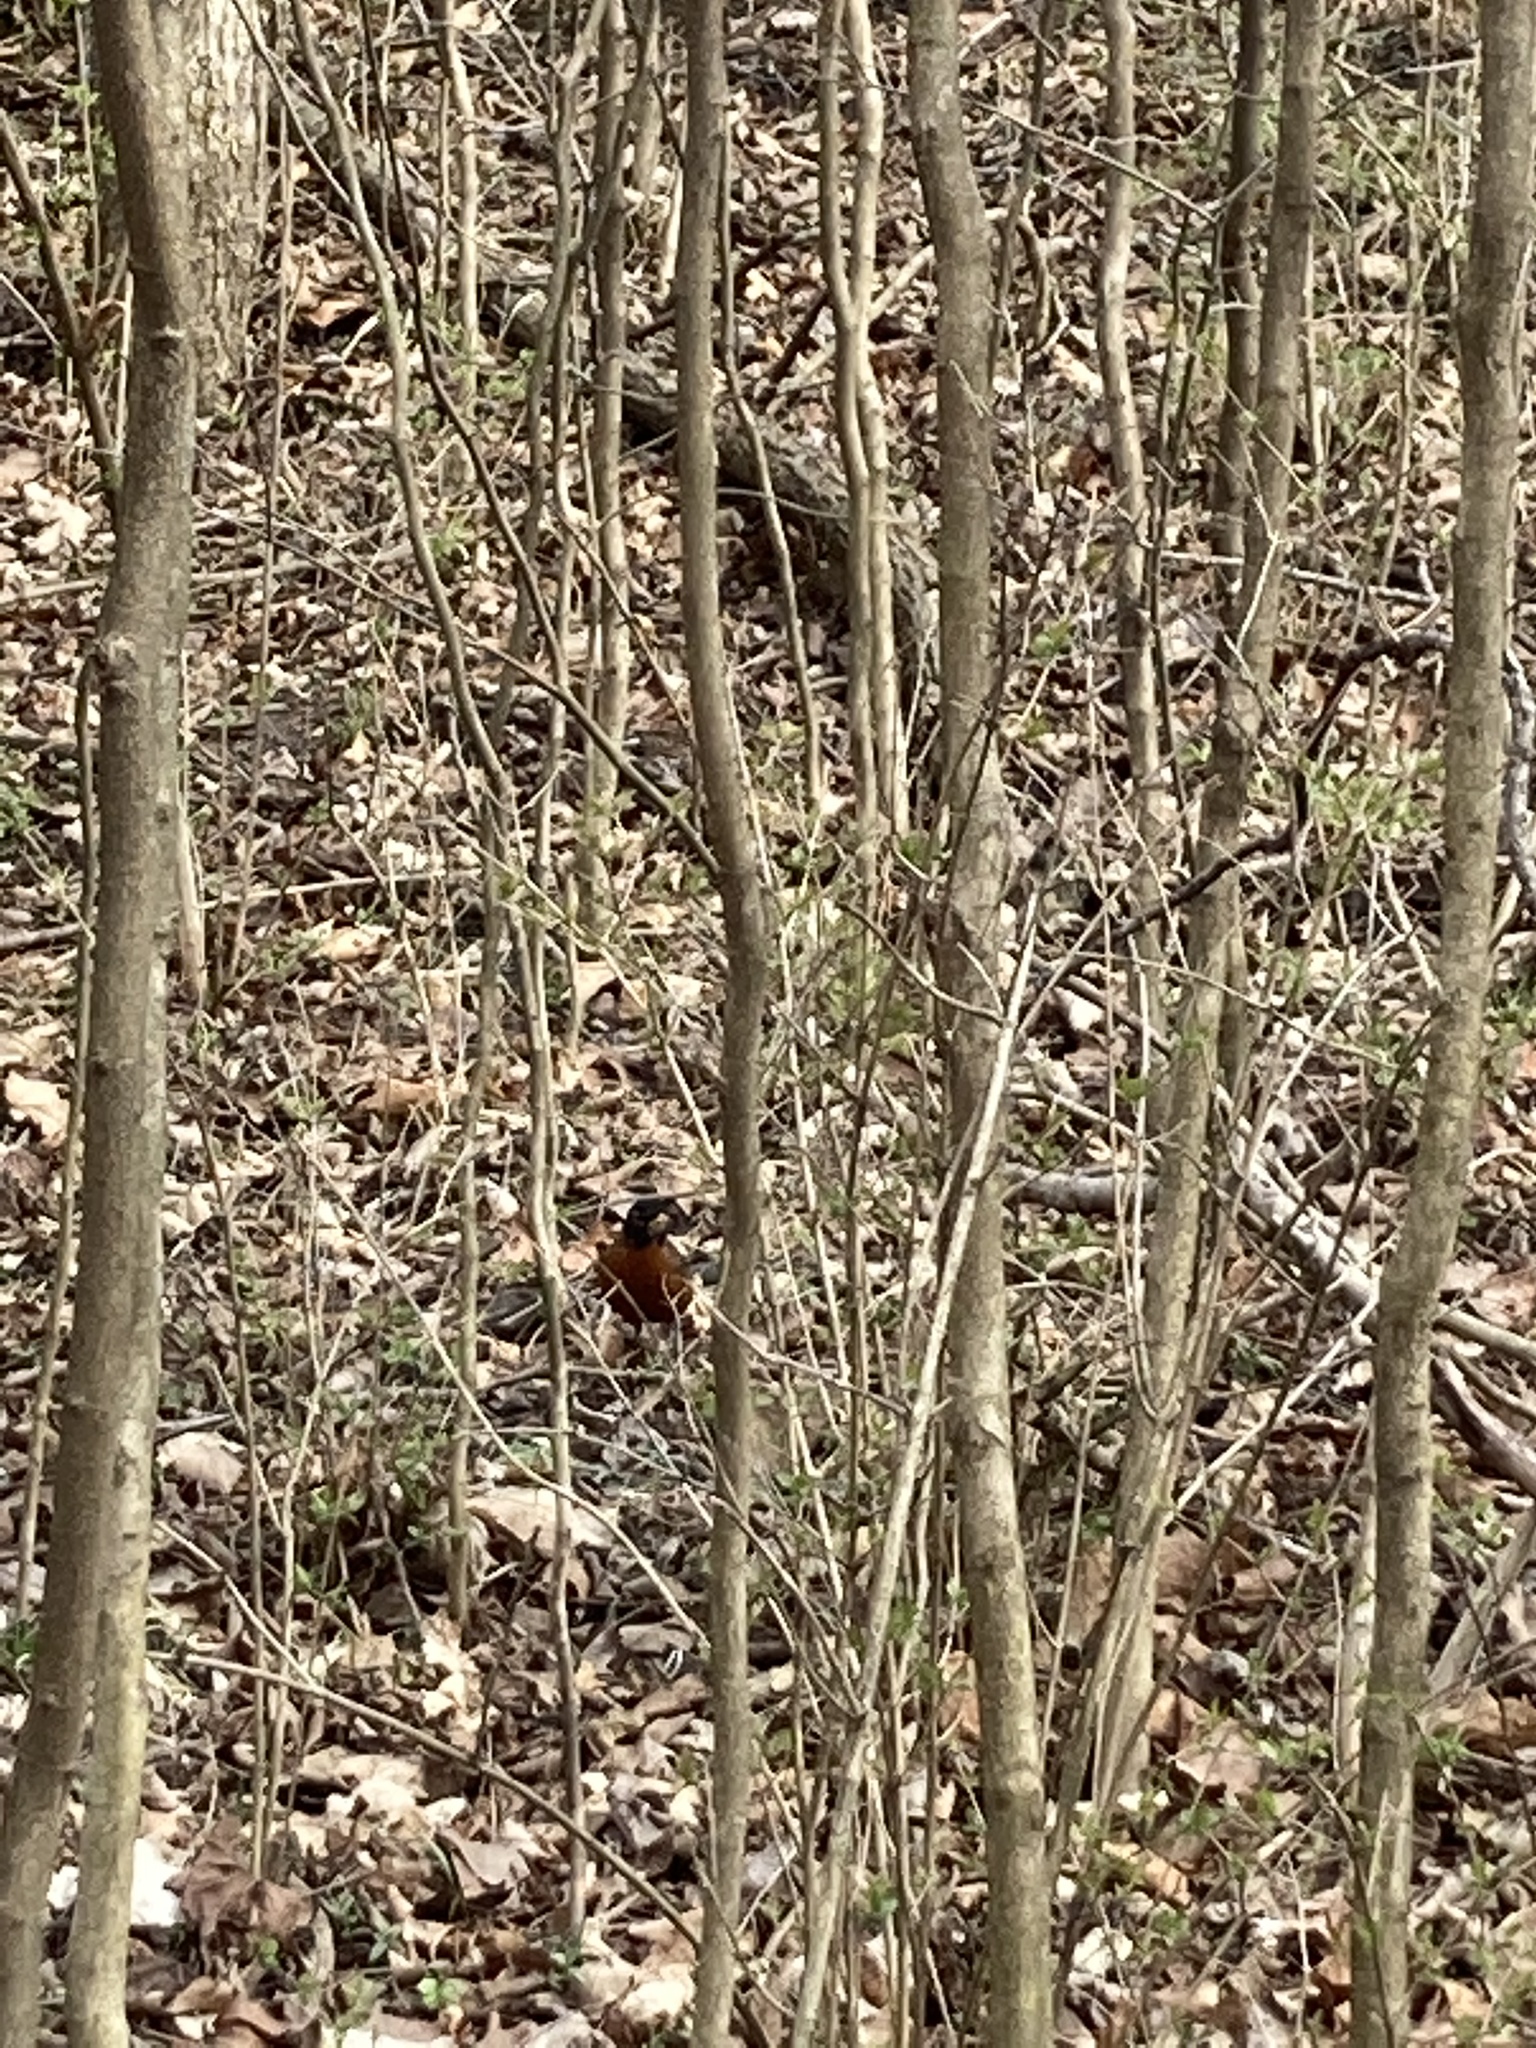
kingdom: Animalia
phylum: Chordata
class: Aves
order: Passeriformes
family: Turdidae
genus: Turdus
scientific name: Turdus migratorius
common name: American robin
